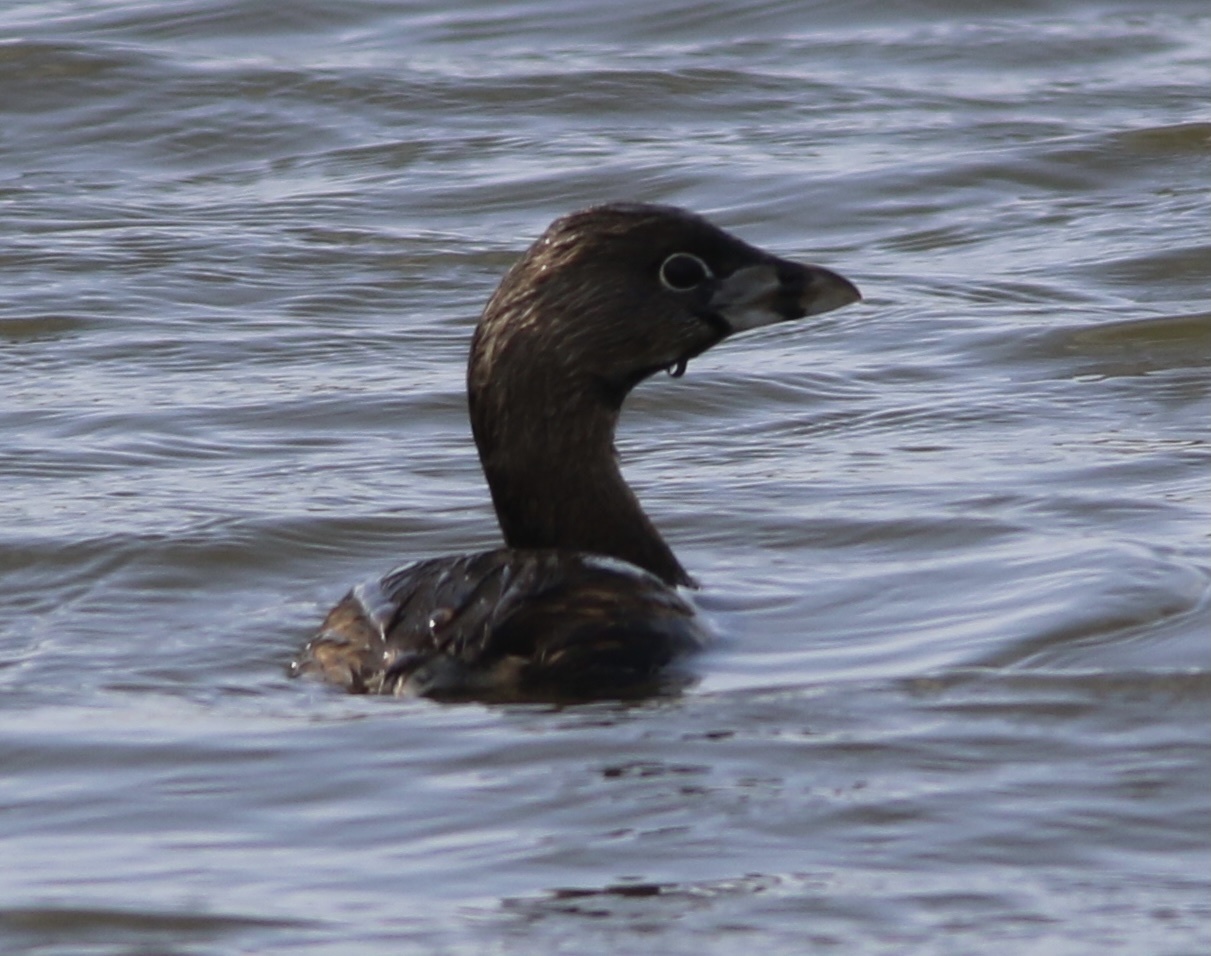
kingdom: Animalia
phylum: Chordata
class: Aves
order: Podicipediformes
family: Podicipedidae
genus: Podilymbus
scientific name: Podilymbus podiceps
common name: Pied-billed grebe
